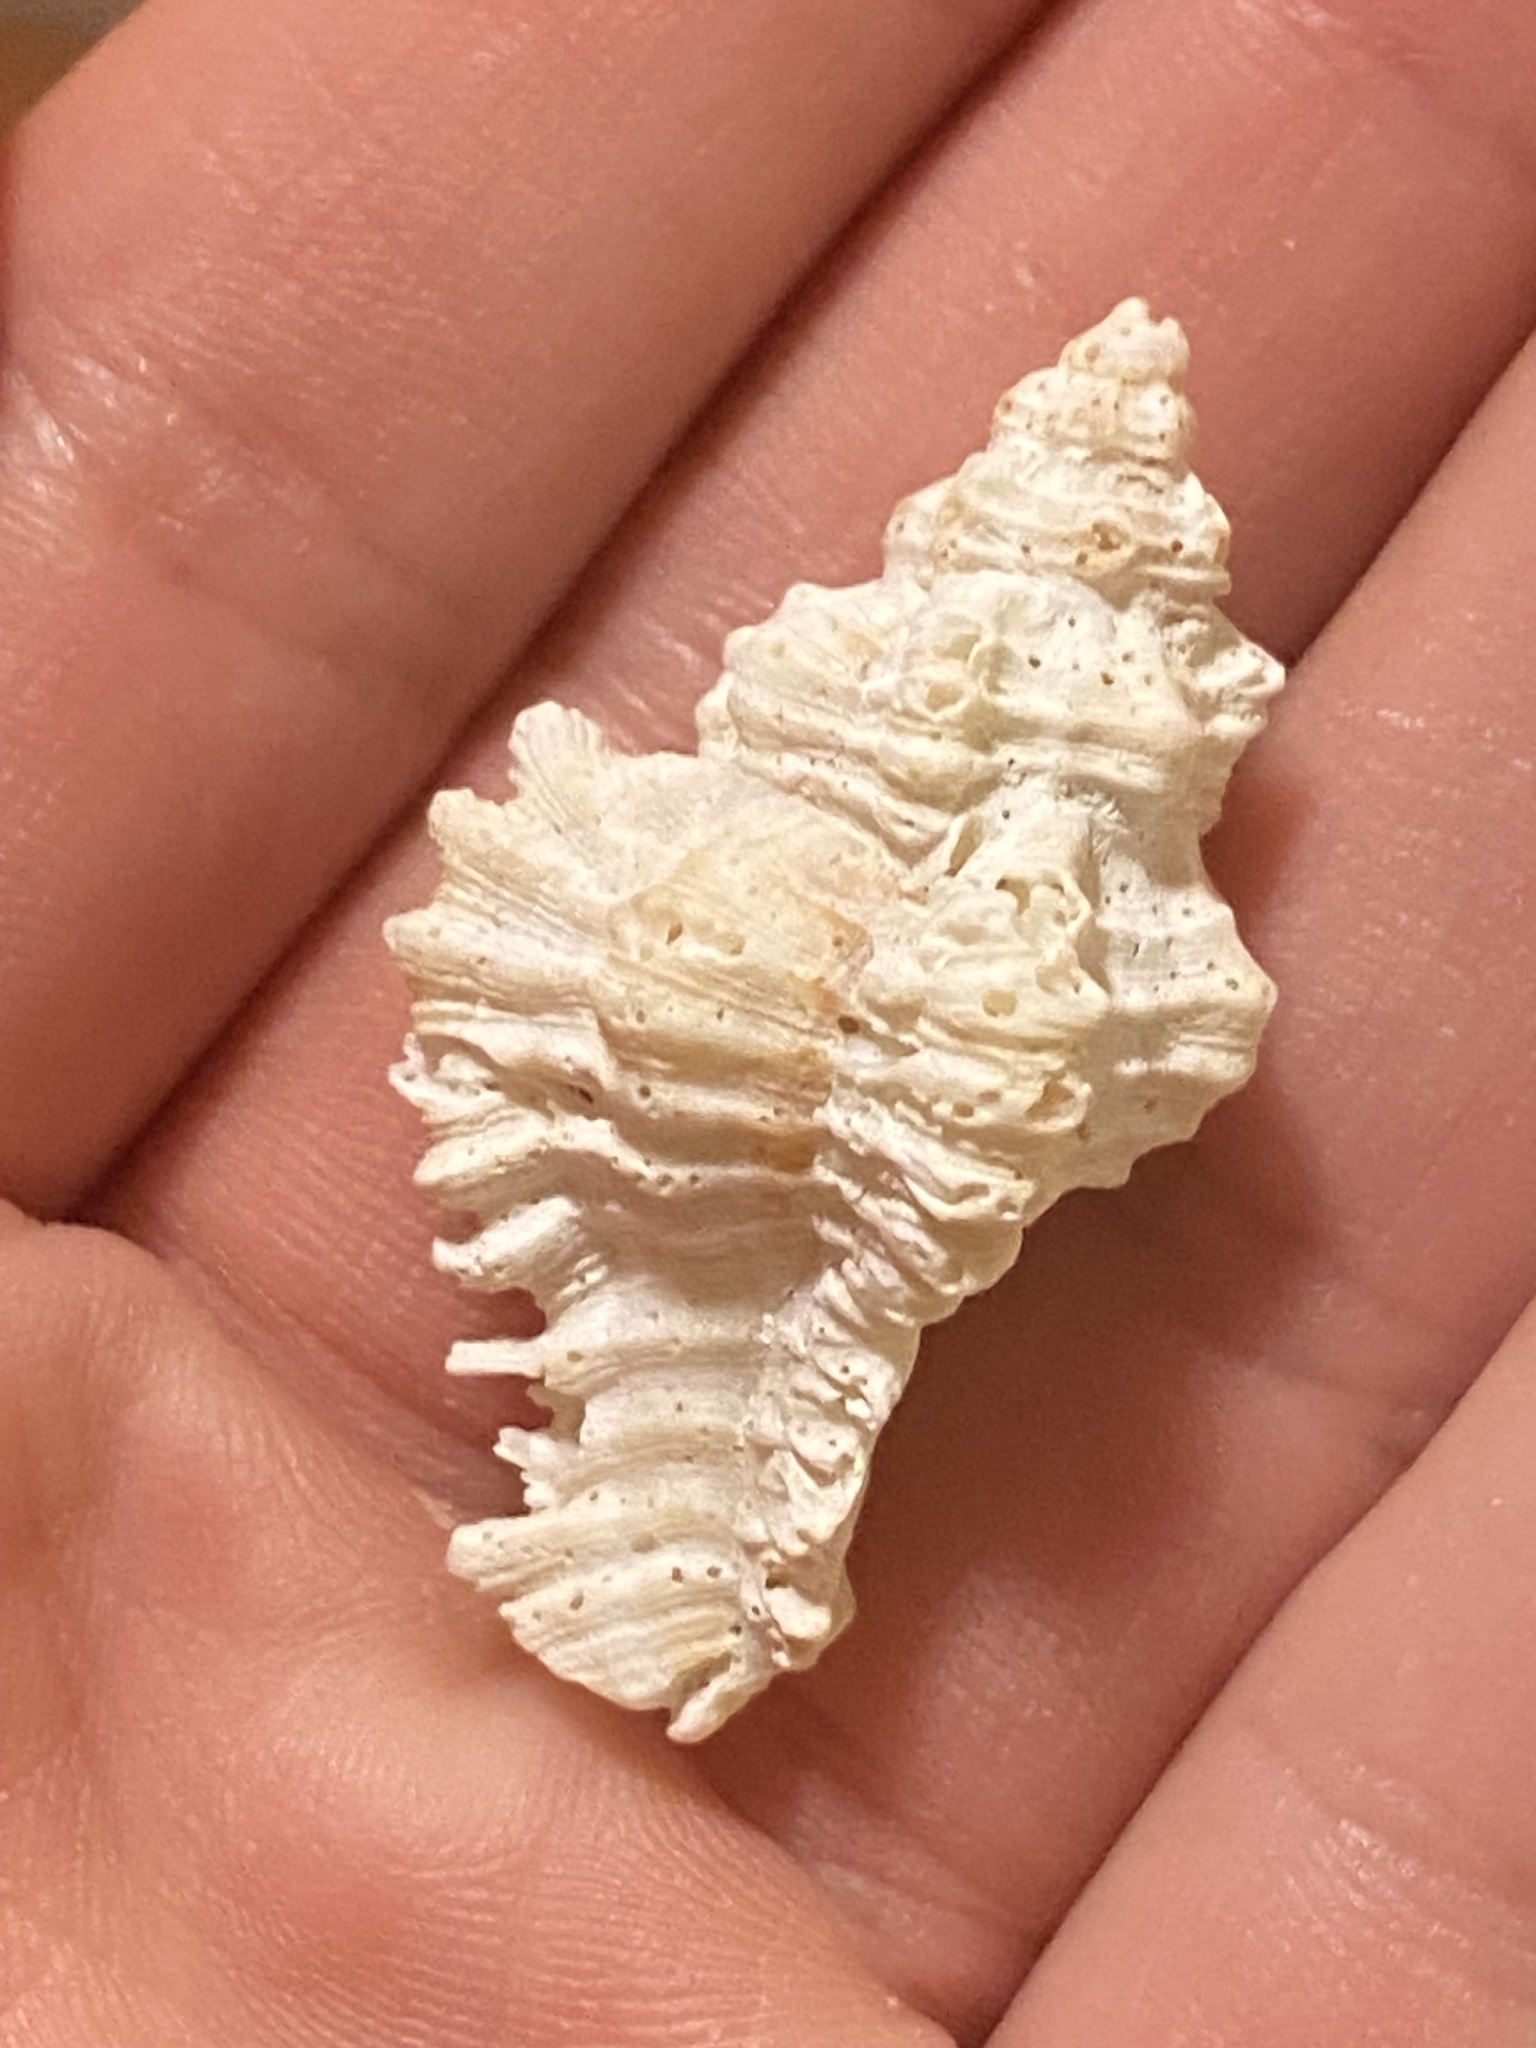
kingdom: Animalia
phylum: Mollusca
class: Gastropoda
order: Neogastropoda
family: Muricidae
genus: Chicoreus
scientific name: Chicoreus florifer
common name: Flowery lace murex
